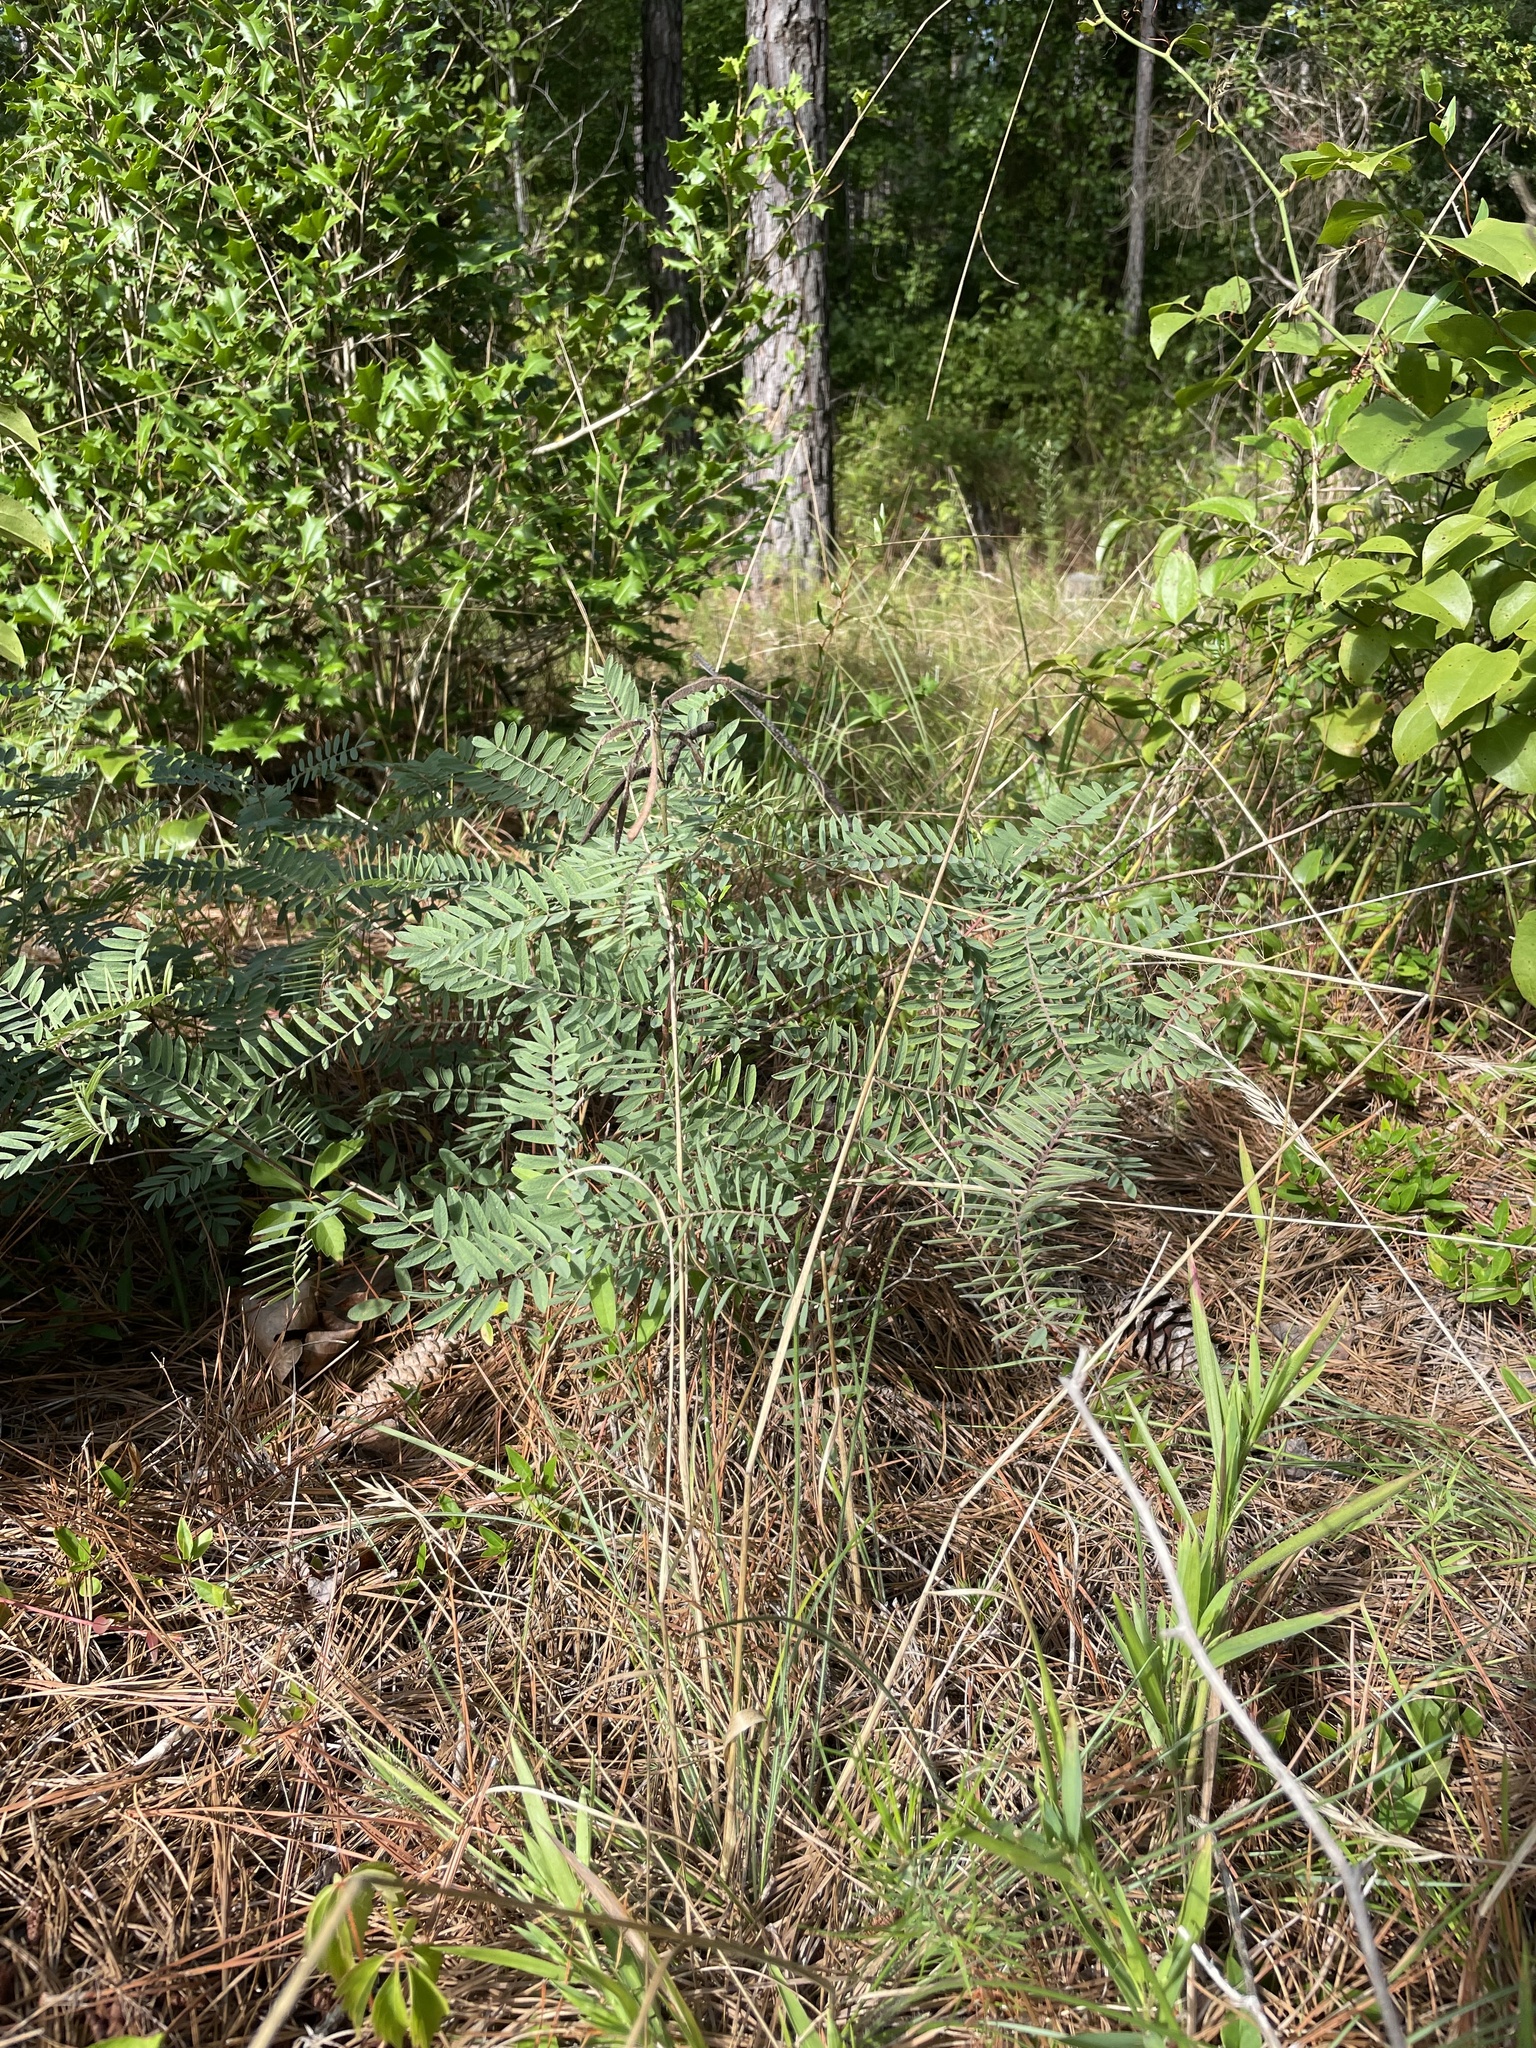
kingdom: Plantae
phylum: Tracheophyta
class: Magnoliopsida
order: Fabales
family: Fabaceae
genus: Tephrosia
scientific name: Tephrosia virginiana
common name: Rabbit-pea
